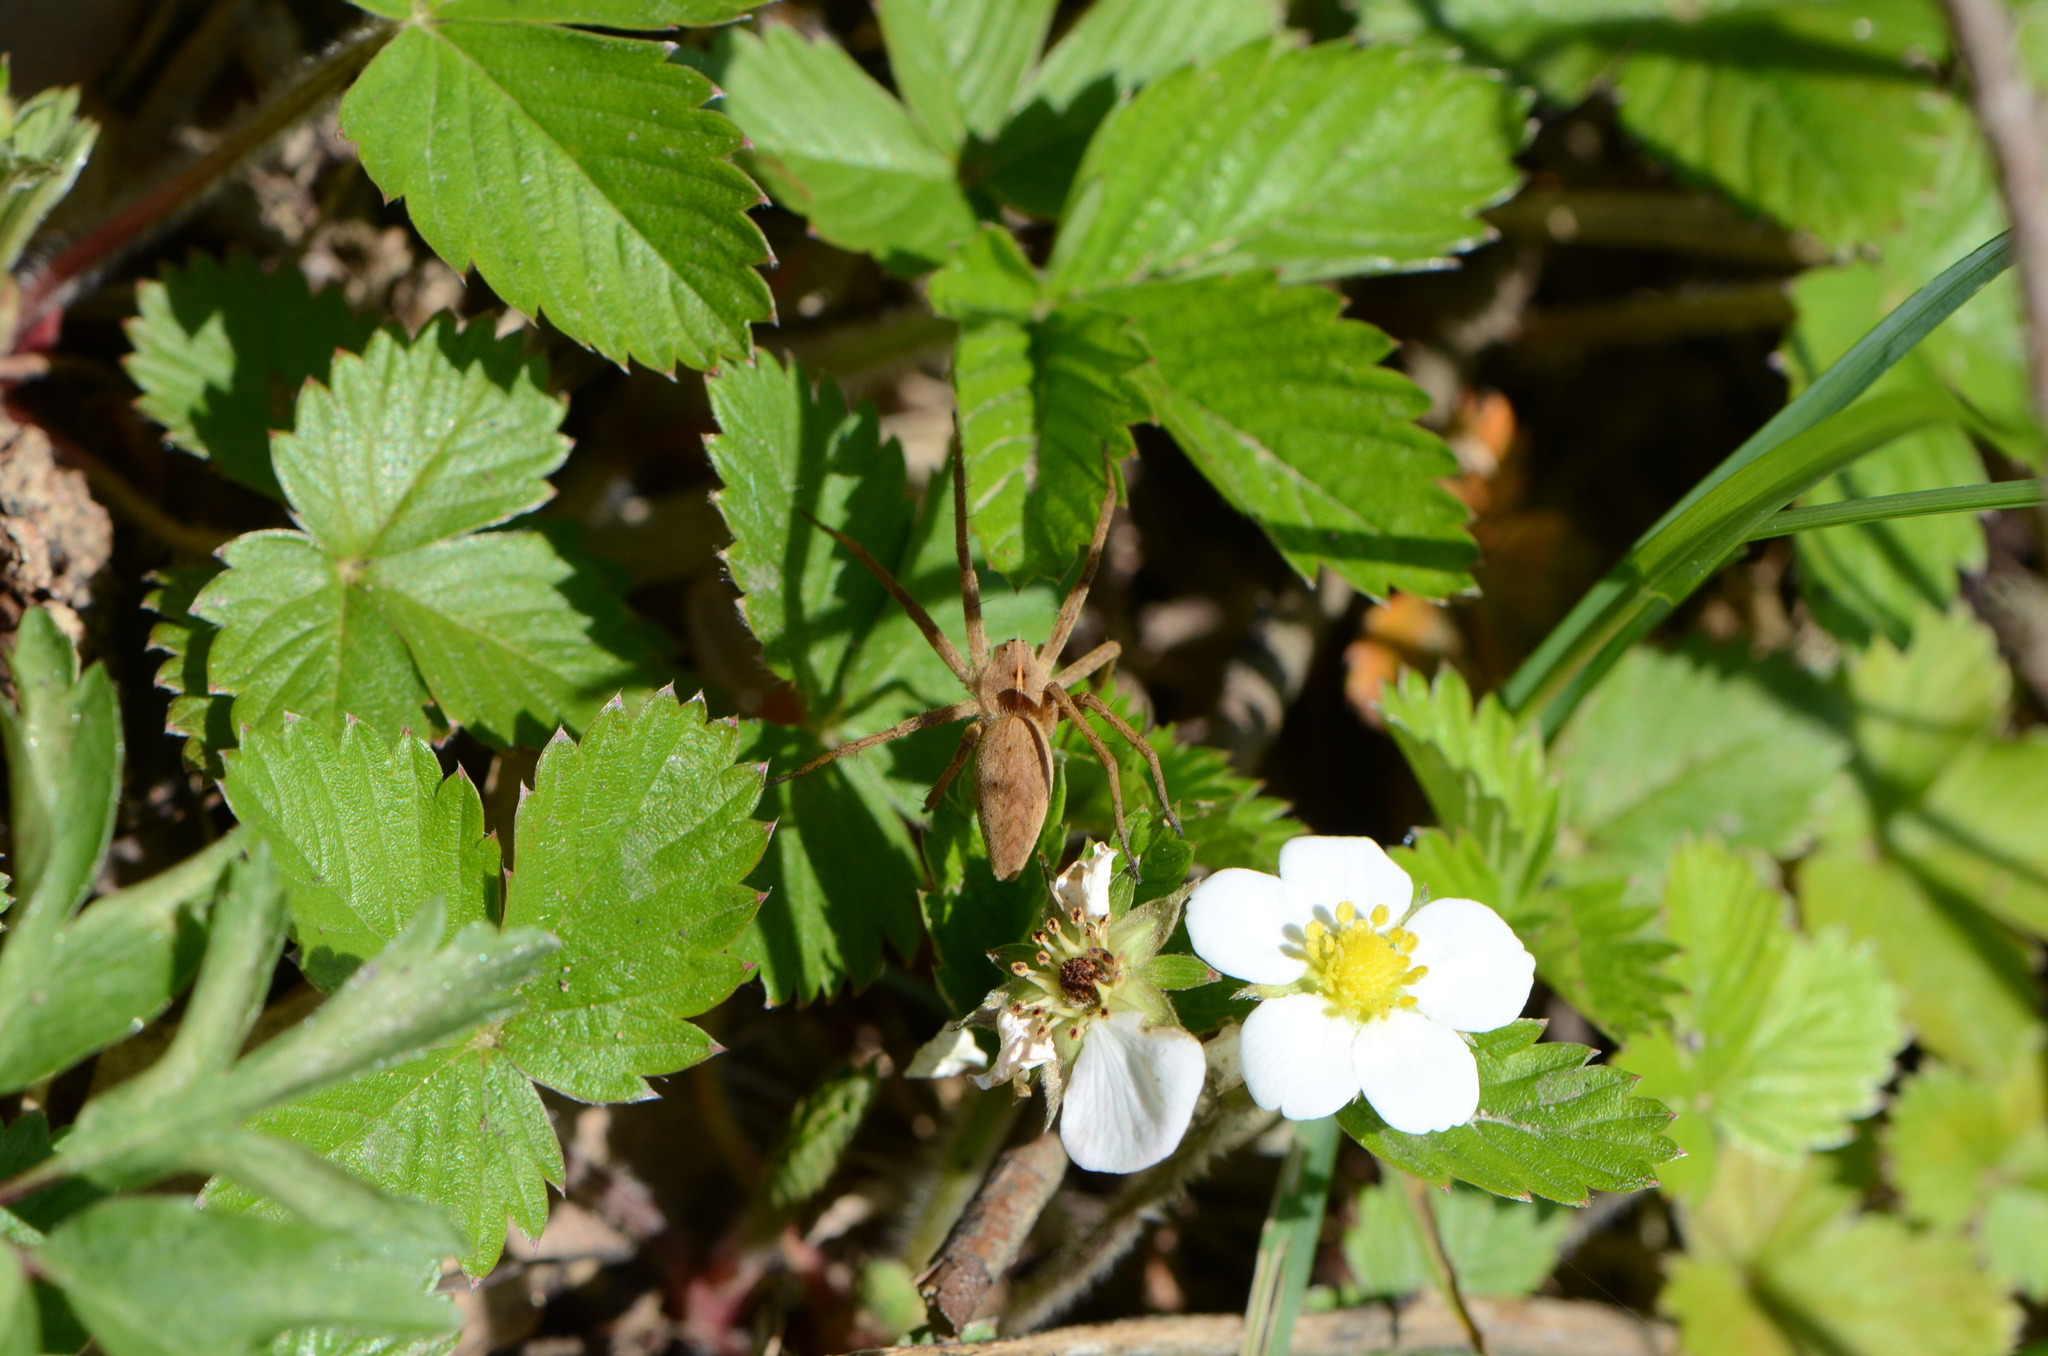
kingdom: Animalia
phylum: Arthropoda
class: Arachnida
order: Araneae
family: Pisauridae
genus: Pisaura
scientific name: Pisaura mirabilis
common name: Tent spider
